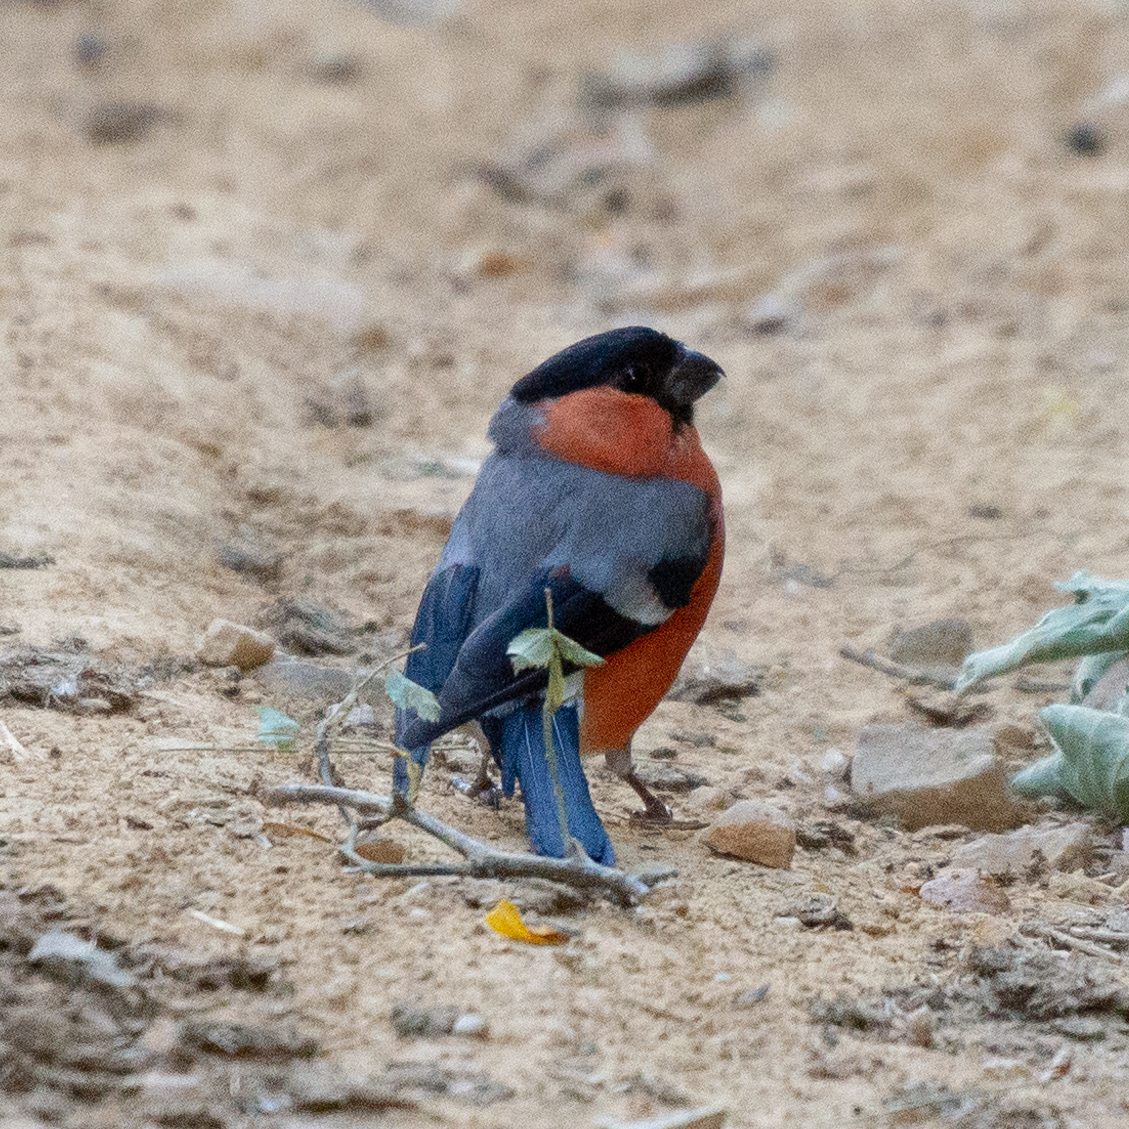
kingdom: Animalia
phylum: Chordata
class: Aves
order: Passeriformes
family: Fringillidae
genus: Pyrrhula
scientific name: Pyrrhula pyrrhula
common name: Eurasian bullfinch
